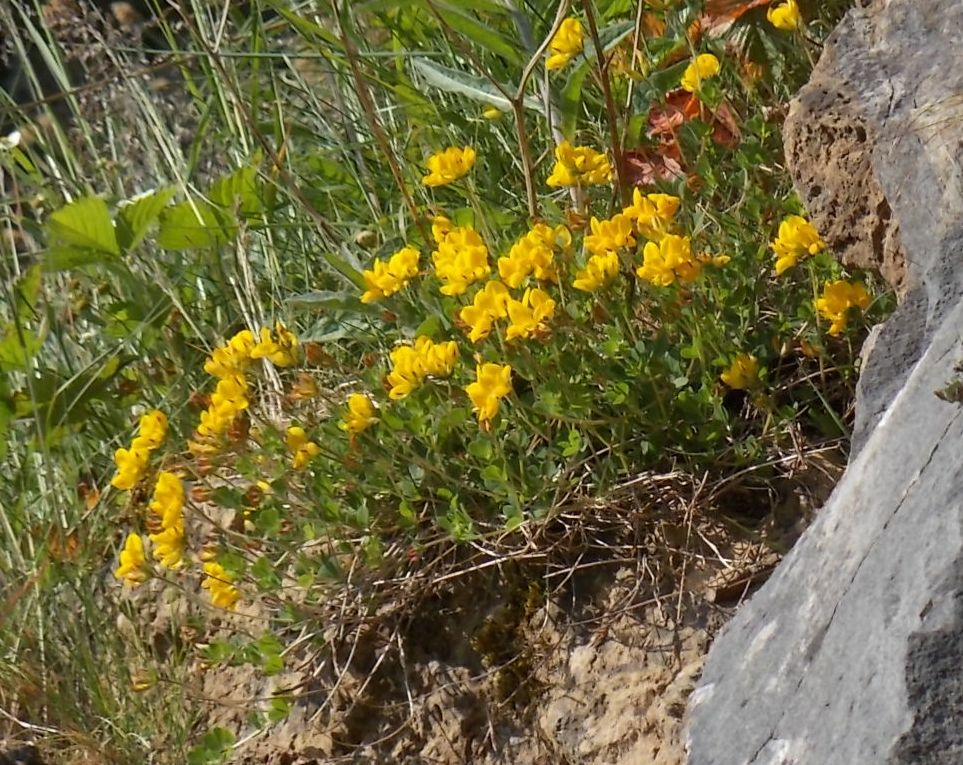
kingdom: Plantae
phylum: Tracheophyta
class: Magnoliopsida
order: Fabales
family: Fabaceae
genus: Lotus
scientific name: Lotus corniculatus
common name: Common bird's-foot-trefoil
